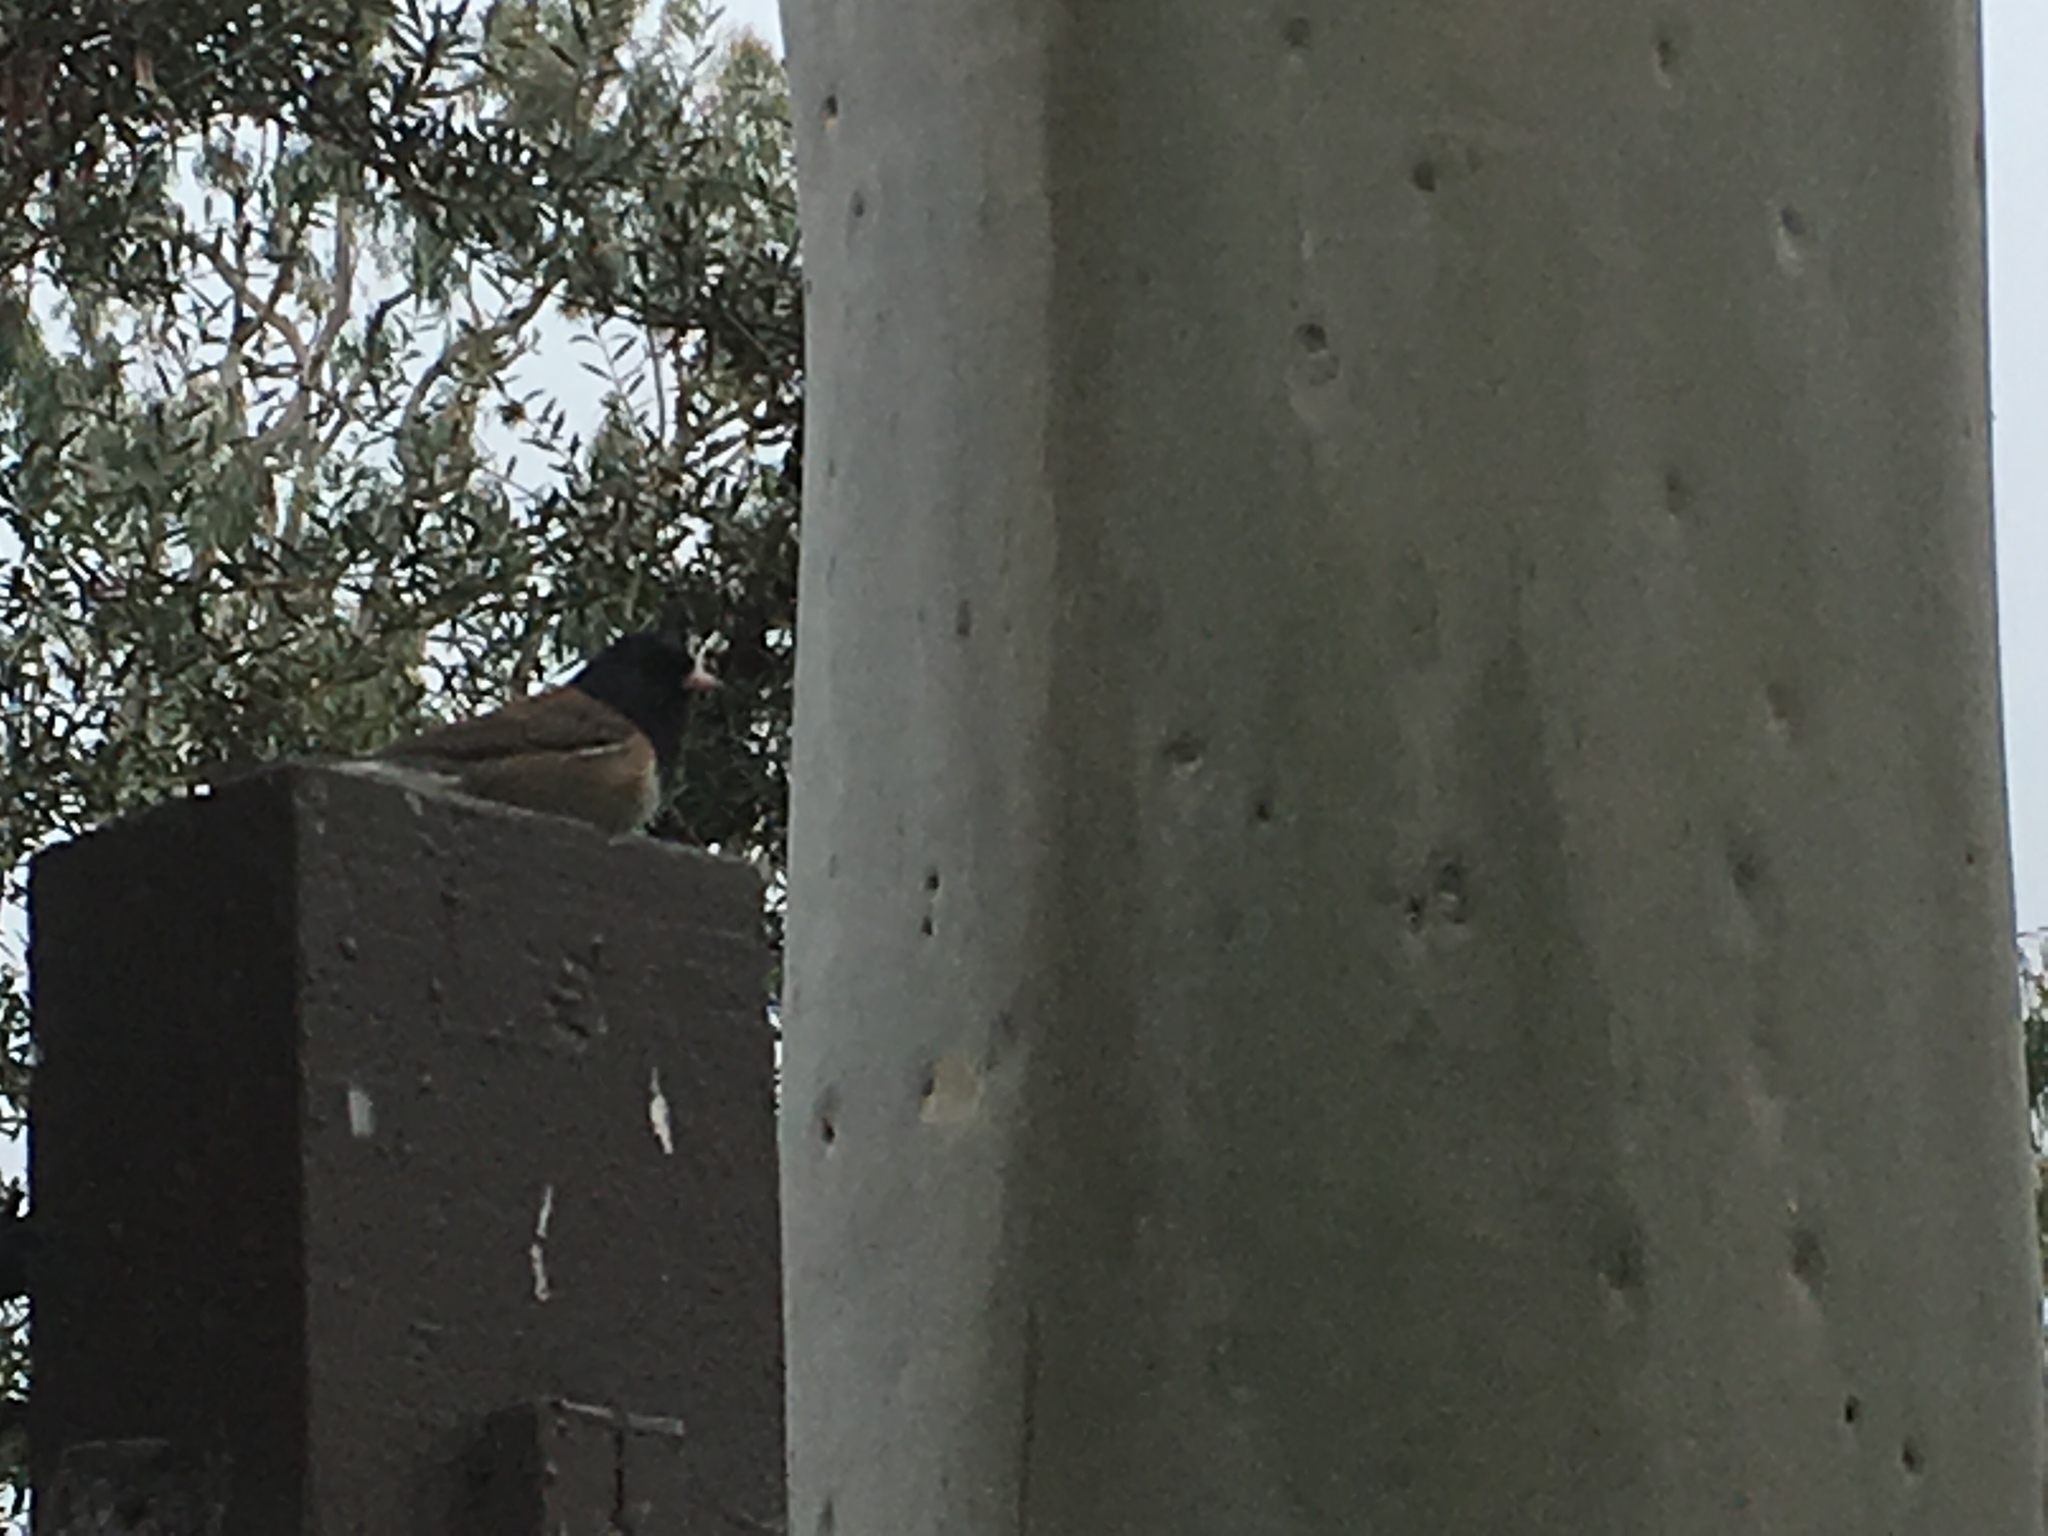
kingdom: Animalia
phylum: Chordata
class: Aves
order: Passeriformes
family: Passerellidae
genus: Junco
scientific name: Junco hyemalis
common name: Dark-eyed junco
